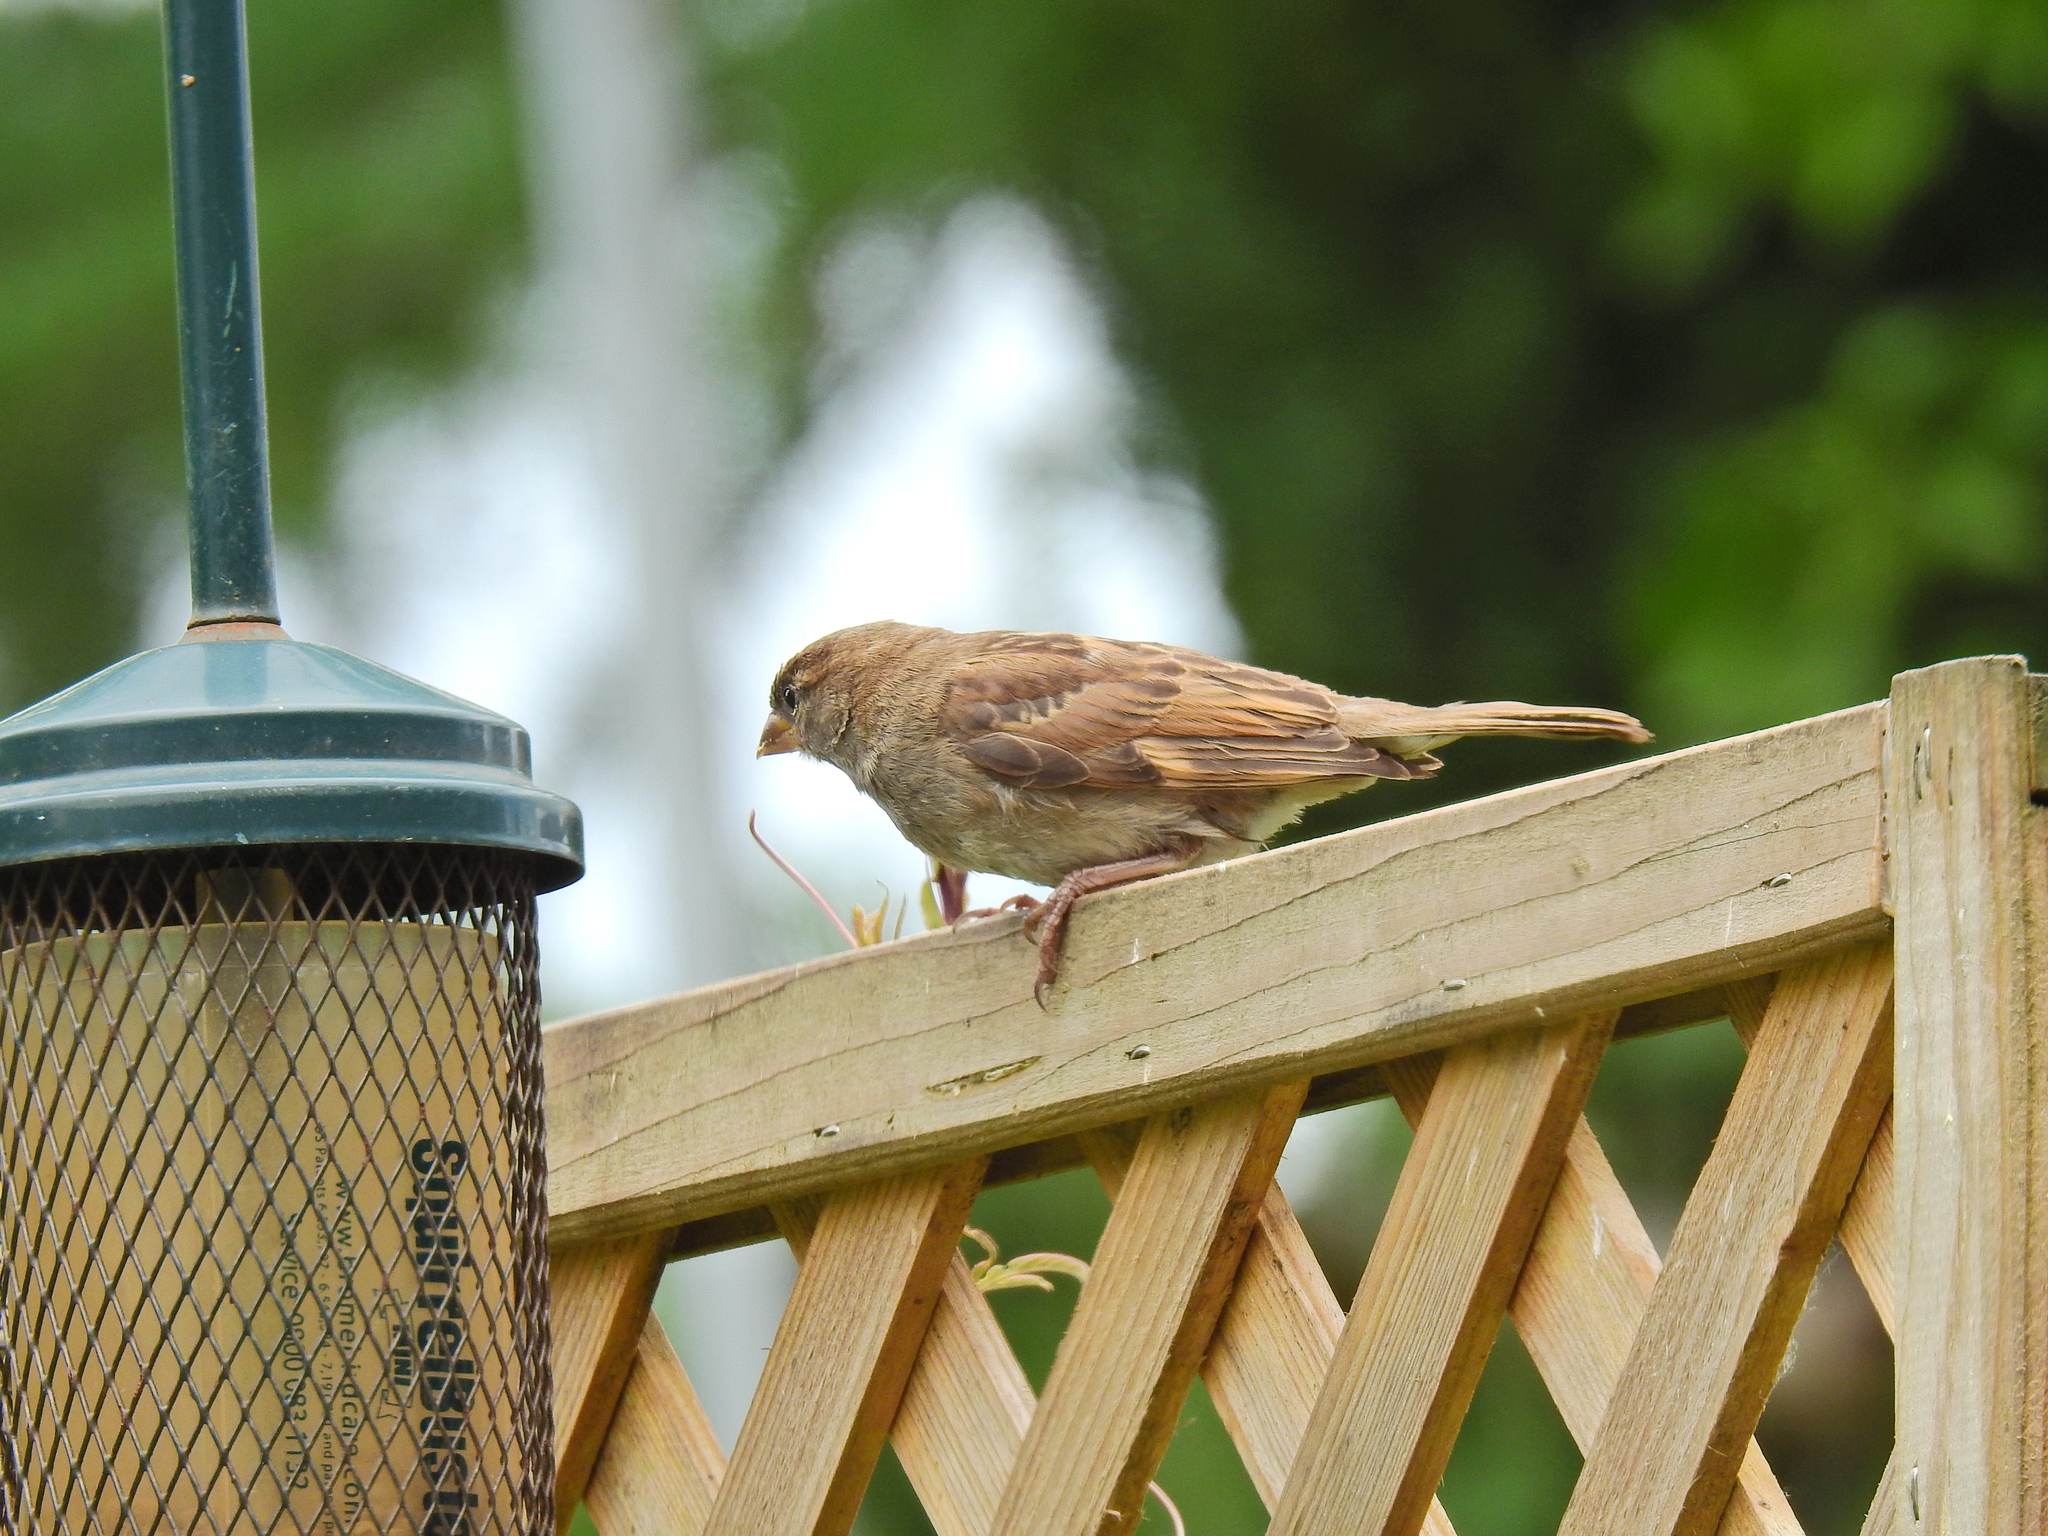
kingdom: Animalia
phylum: Chordata
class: Aves
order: Passeriformes
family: Passeridae
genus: Passer
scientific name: Passer domesticus
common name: House sparrow
